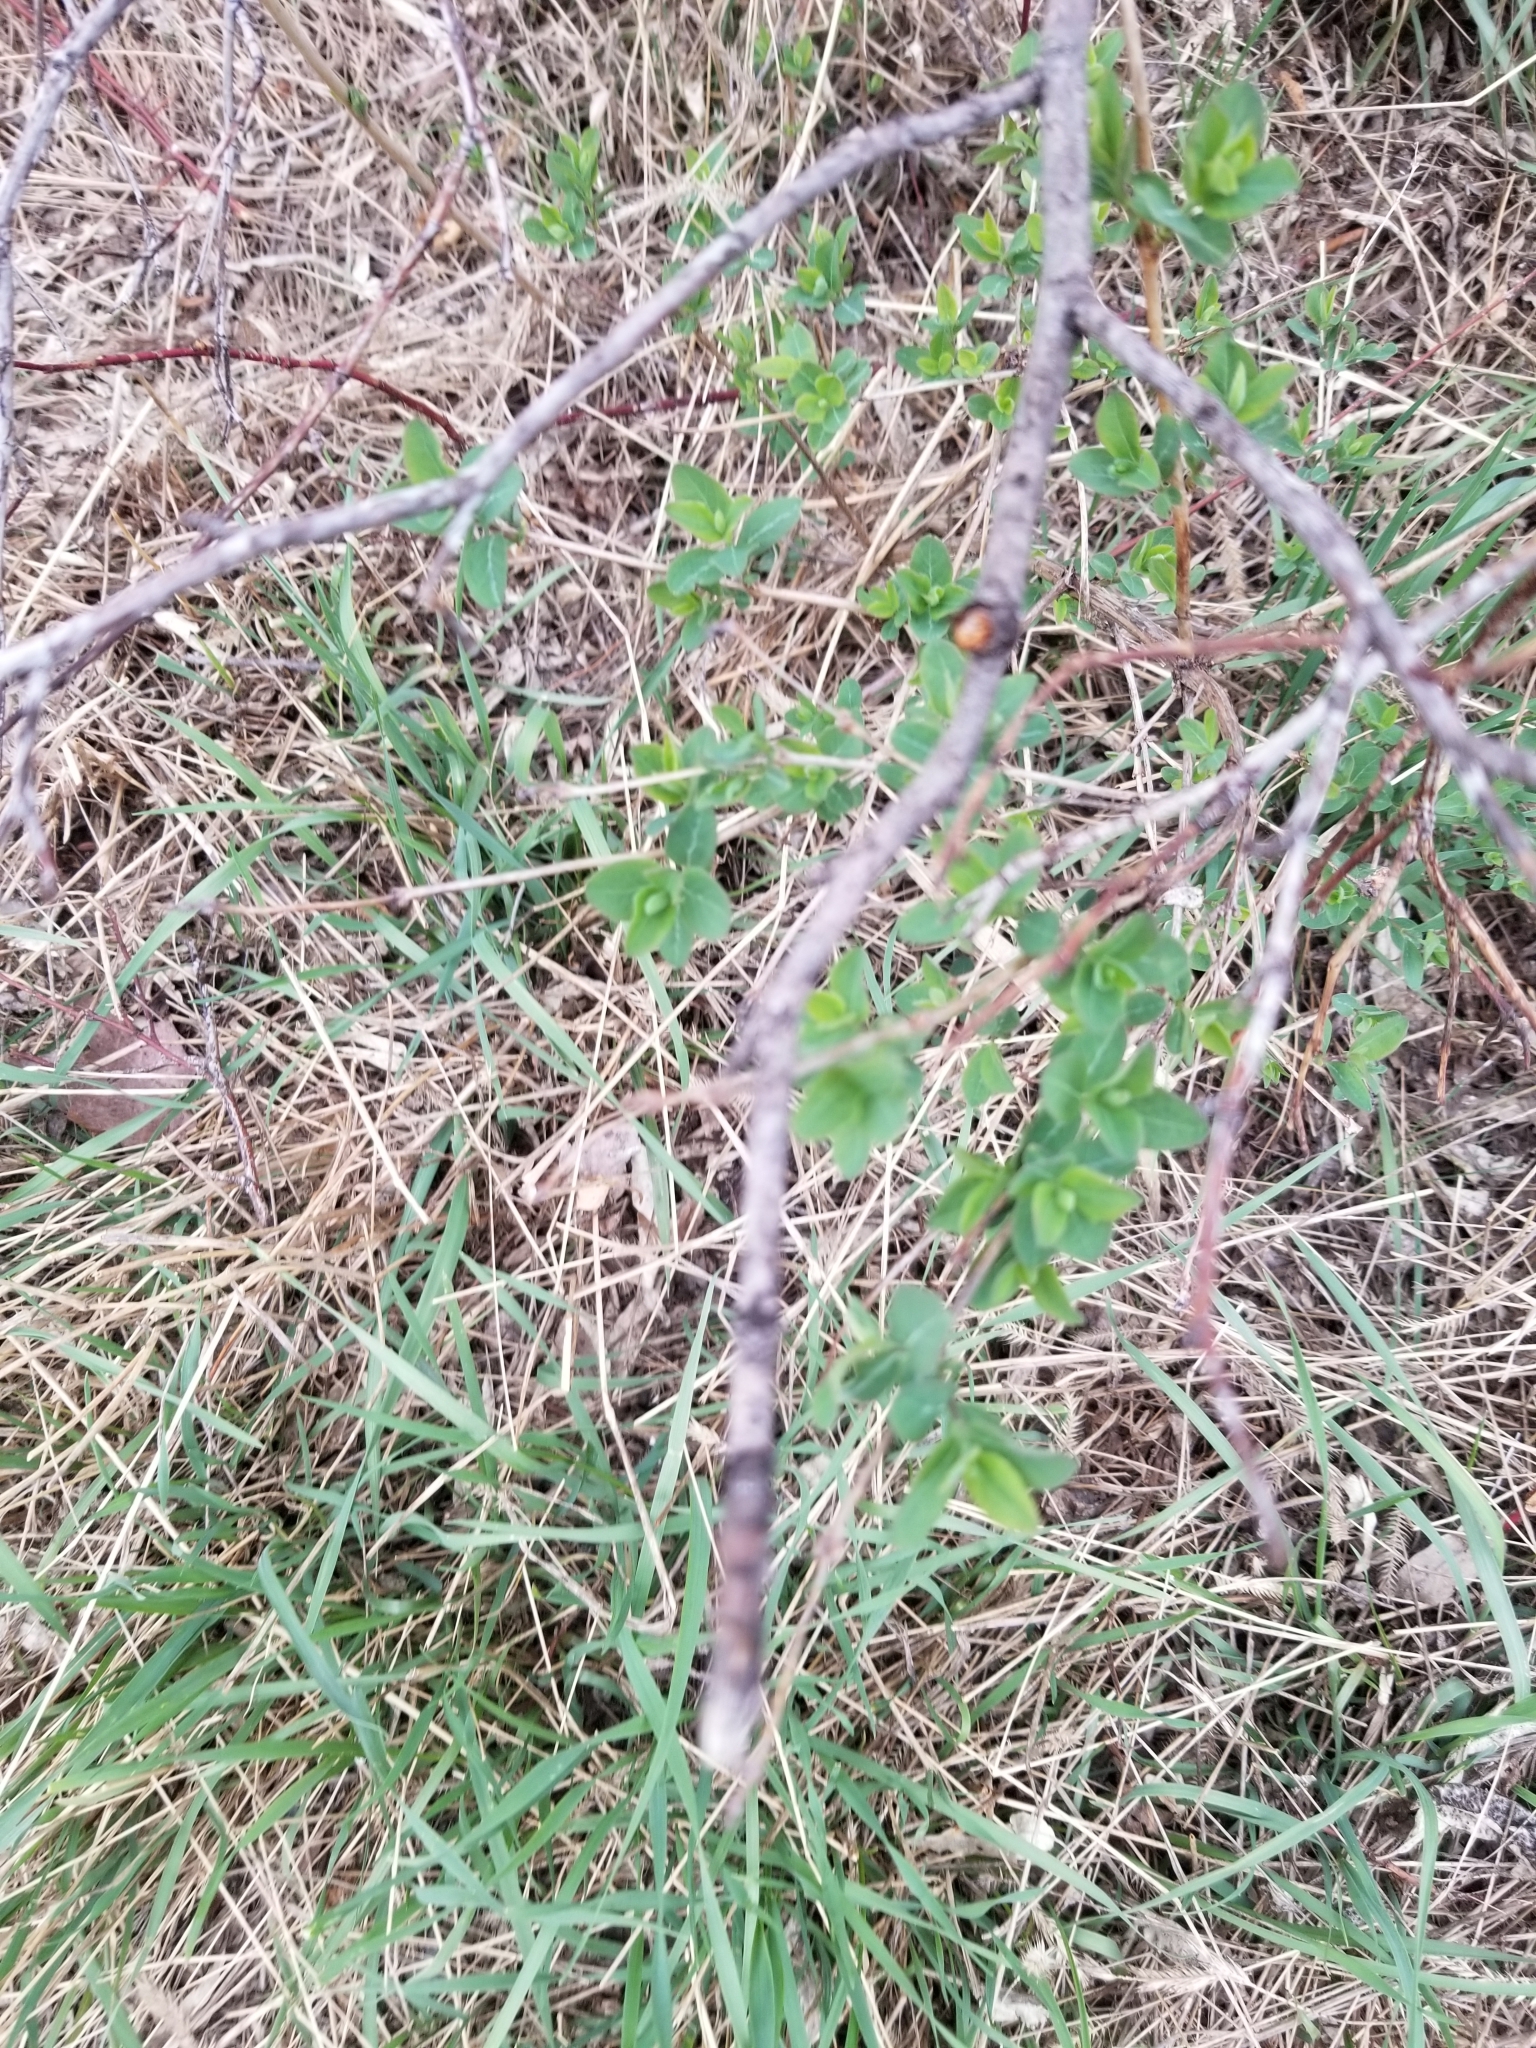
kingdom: Plantae
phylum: Tracheophyta
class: Magnoliopsida
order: Dipsacales
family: Caprifoliaceae
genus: Symphoricarpos
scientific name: Symphoricarpos albus
